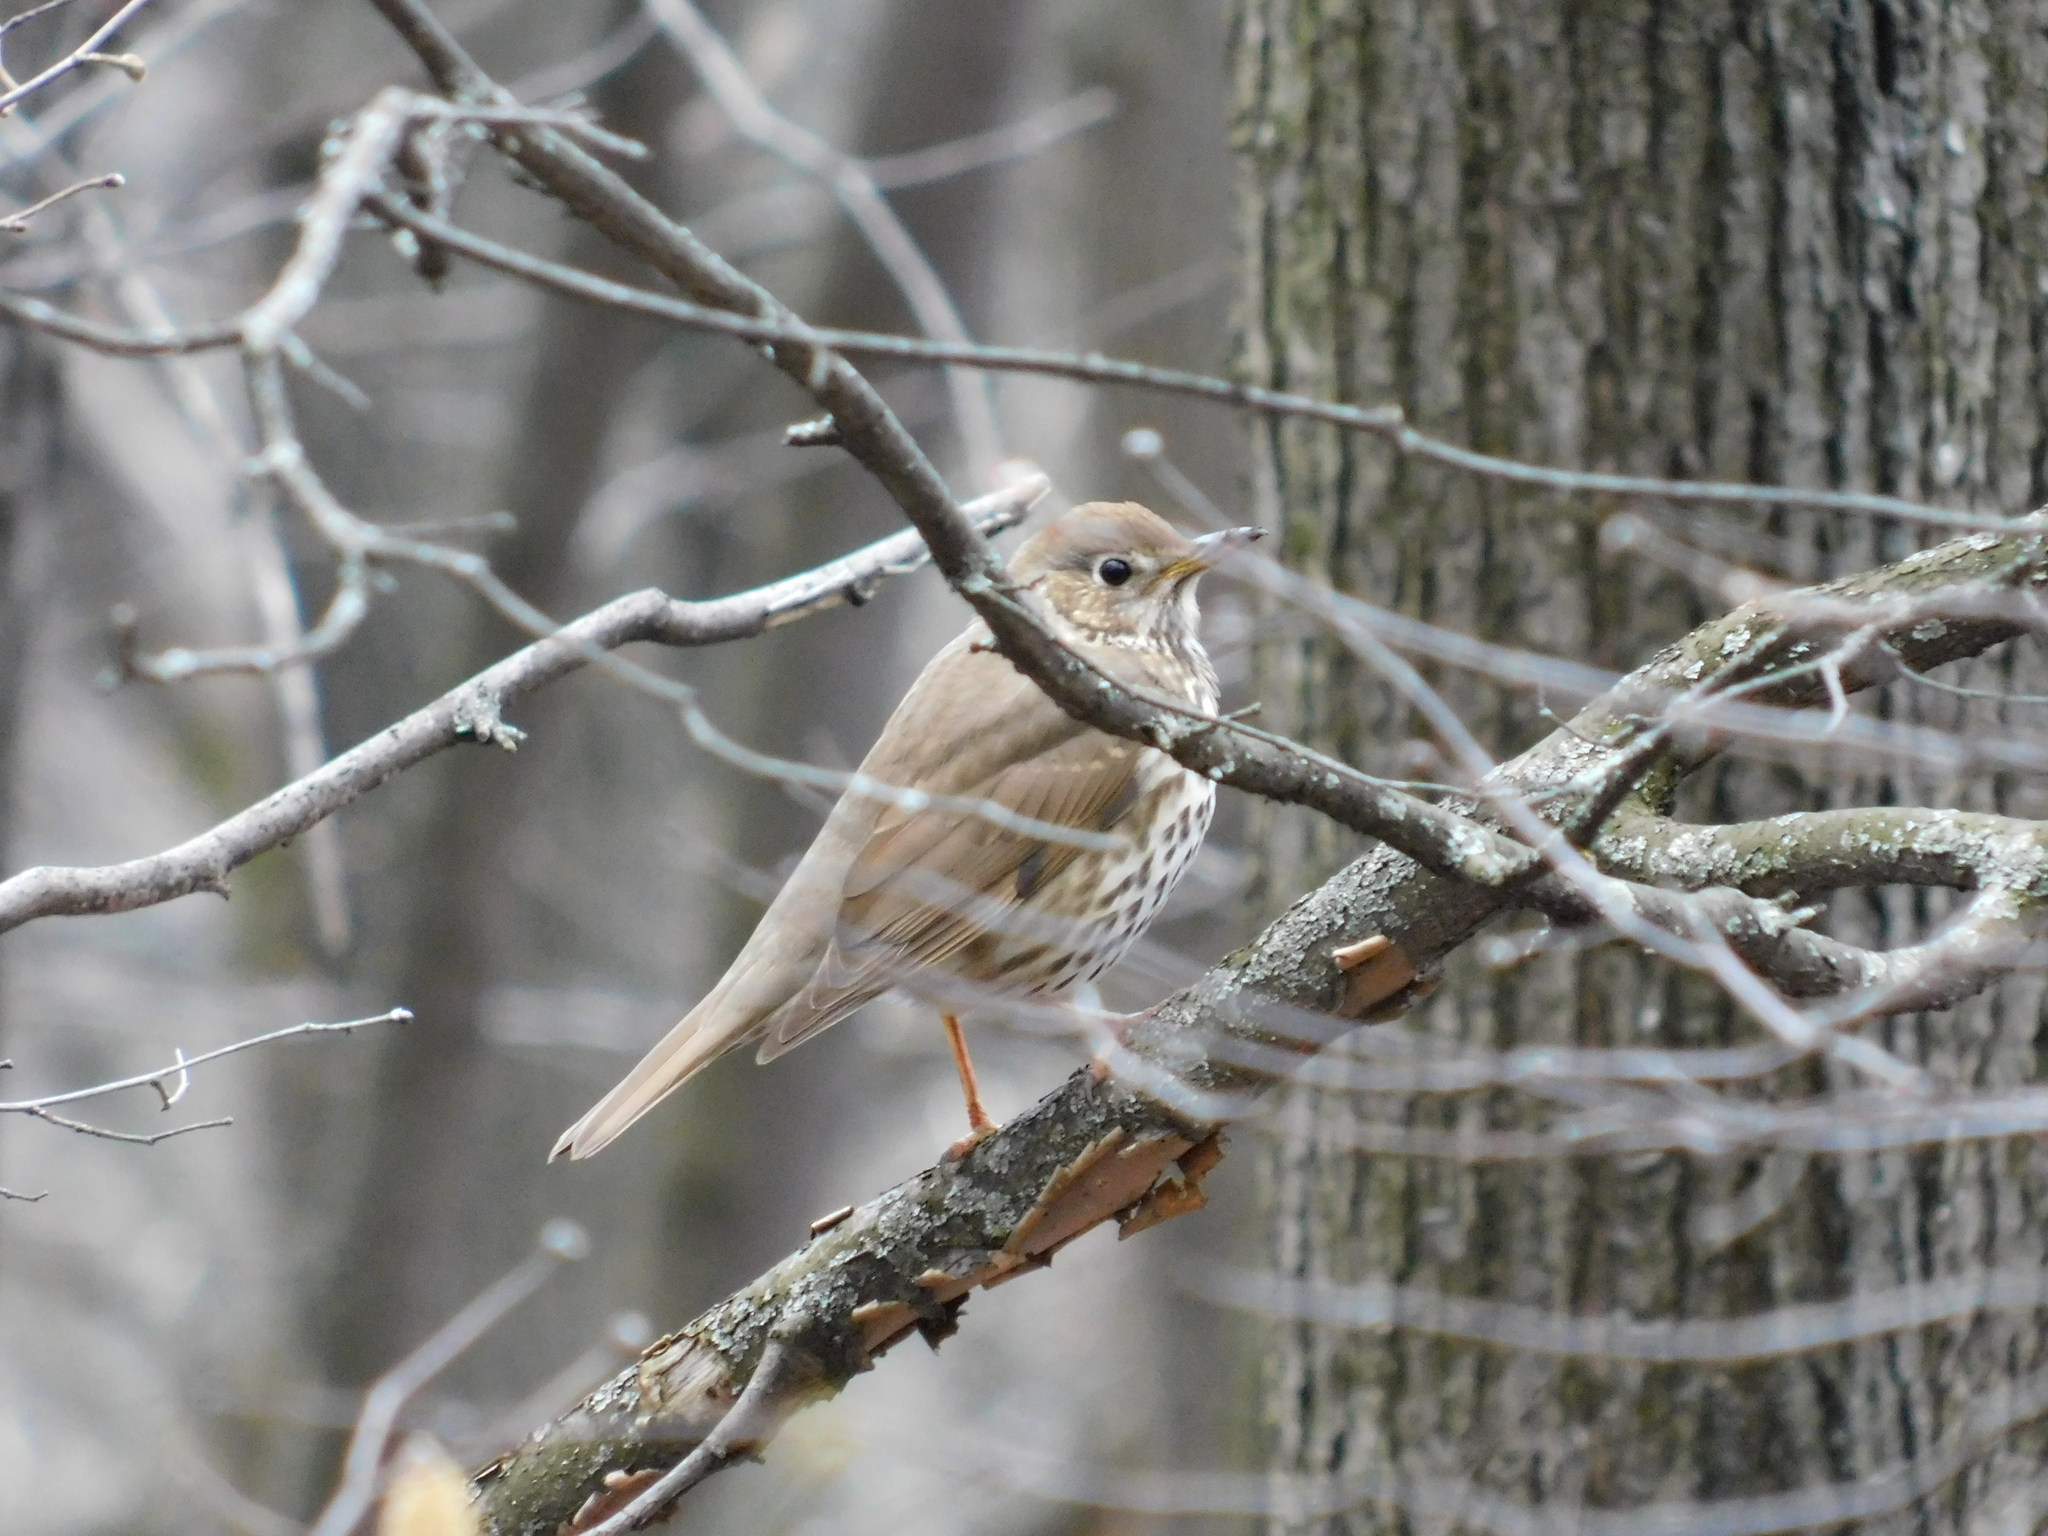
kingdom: Animalia
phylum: Chordata
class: Aves
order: Passeriformes
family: Turdidae
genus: Turdus
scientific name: Turdus philomelos
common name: Song thrush
